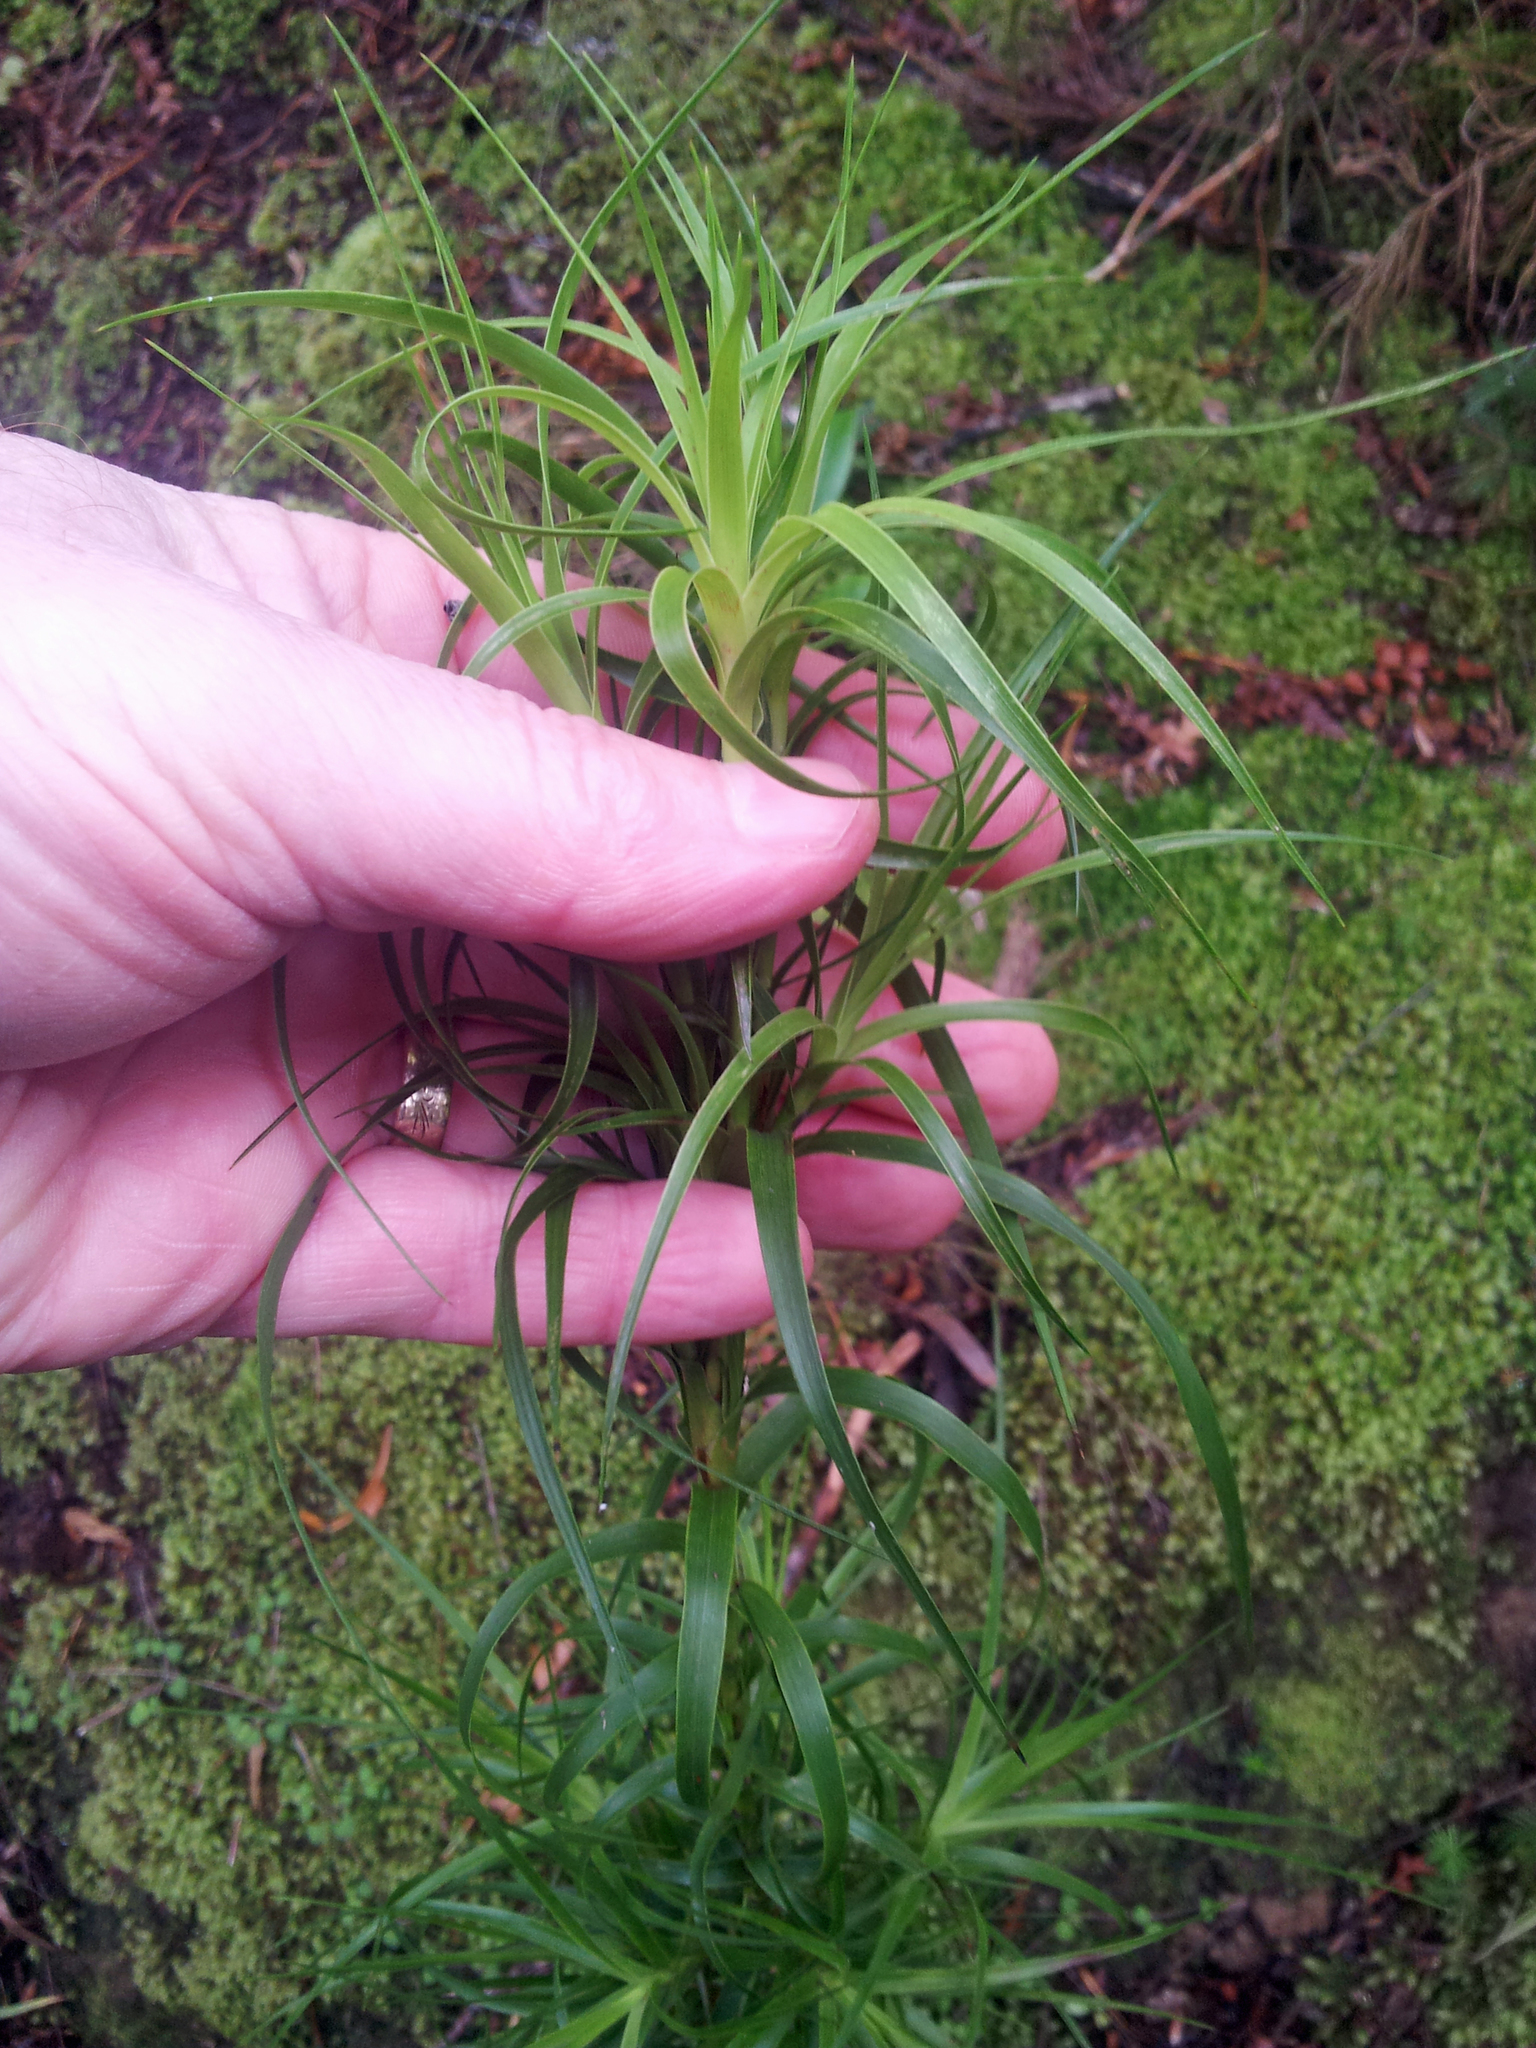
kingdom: Plantae
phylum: Tracheophyta
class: Magnoliopsida
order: Ericales
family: Ericaceae
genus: Dracophyllum
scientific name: Dracophyllum sinclairii
